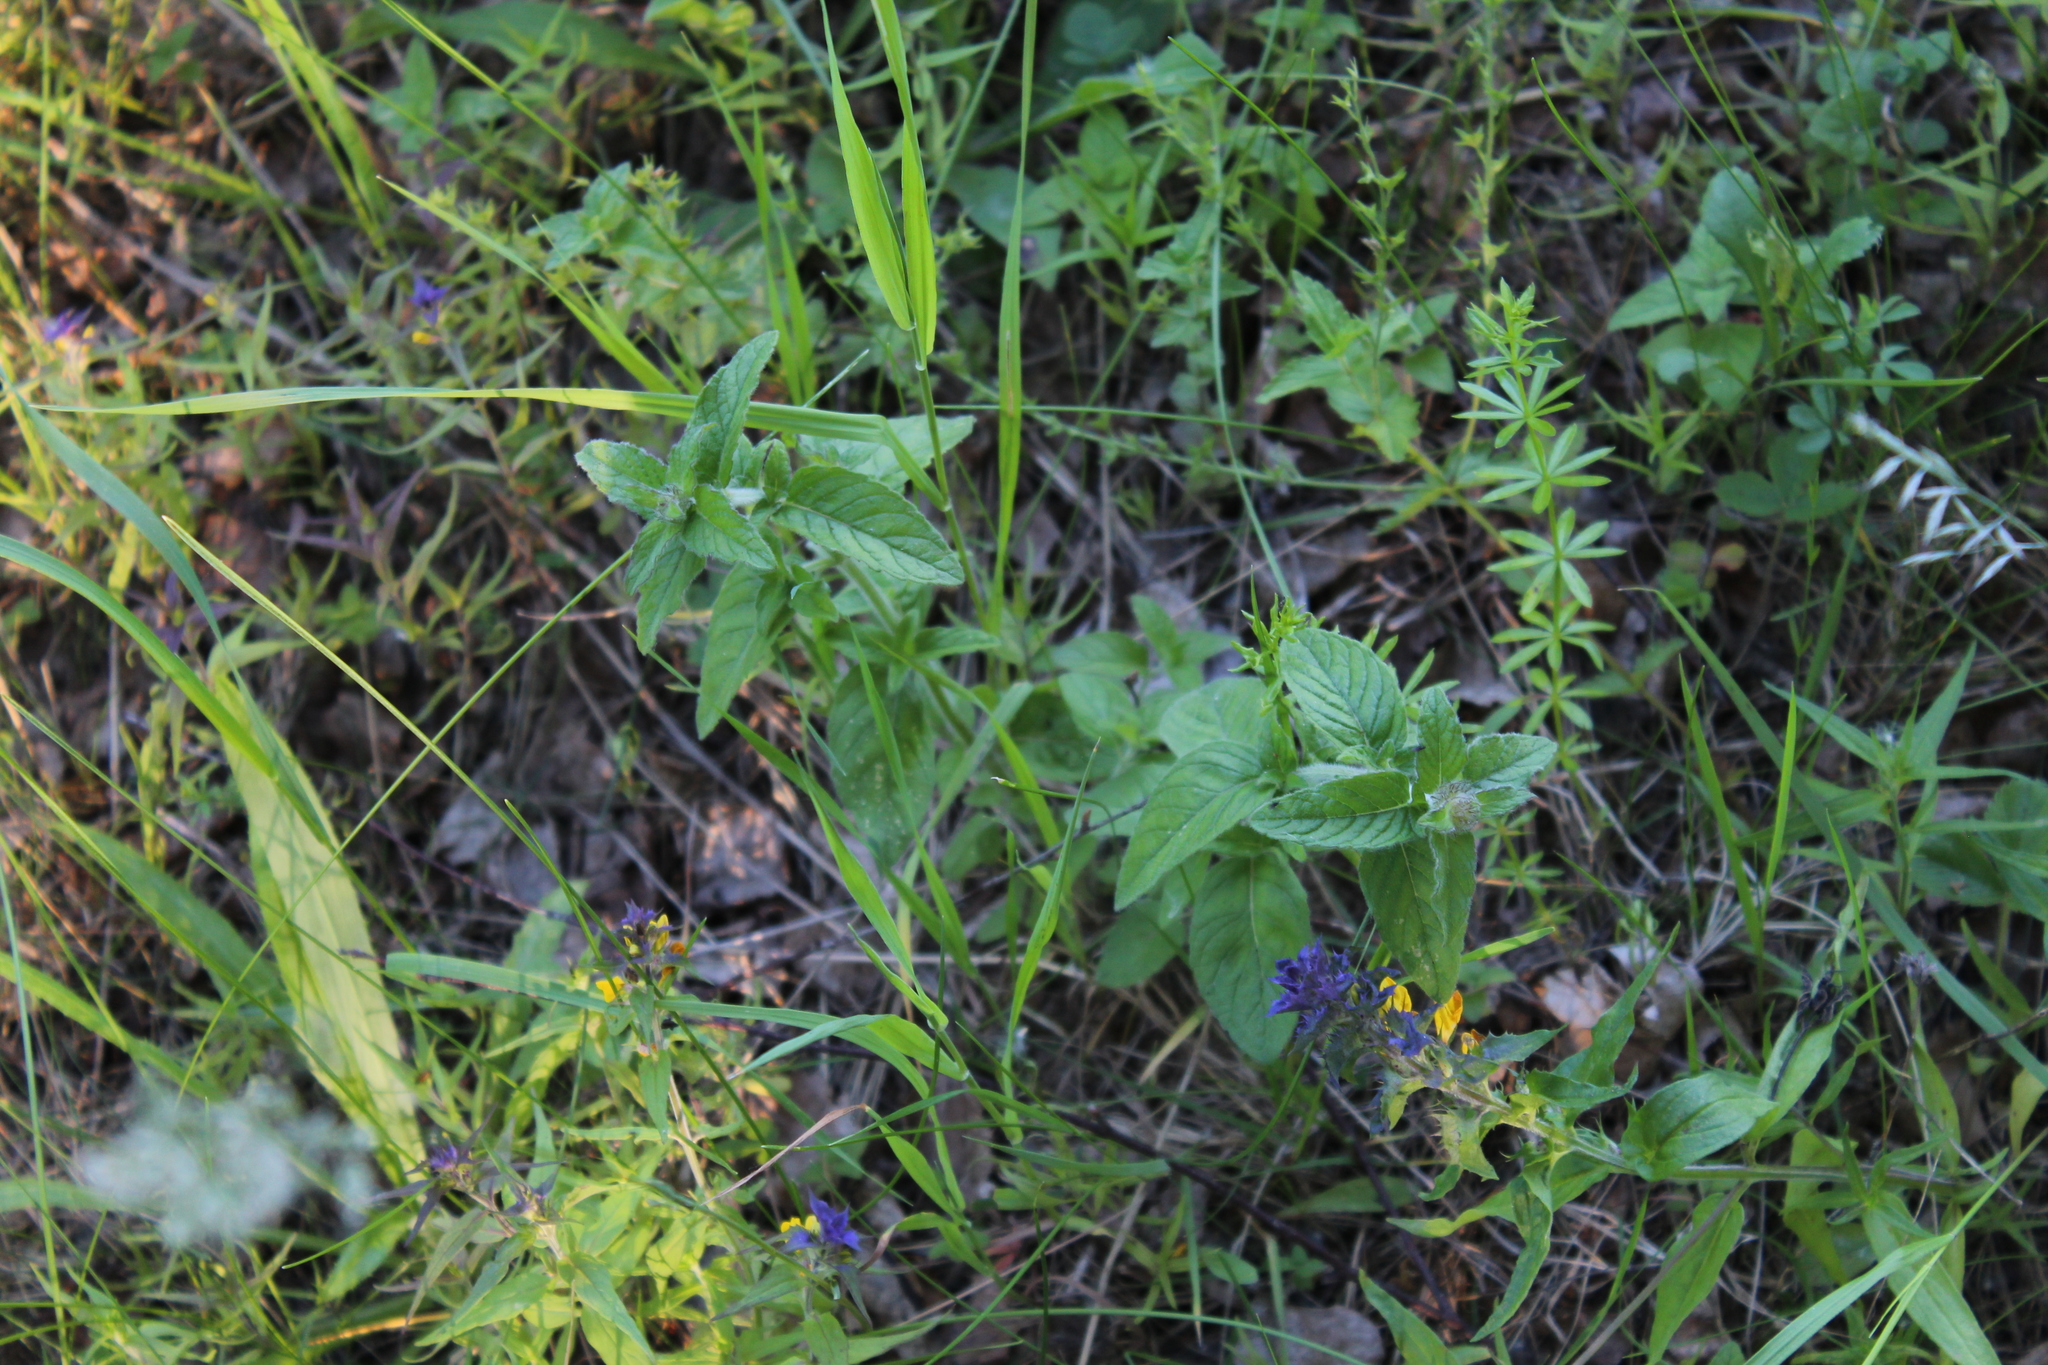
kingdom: Plantae
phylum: Tracheophyta
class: Magnoliopsida
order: Lamiales
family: Lamiaceae
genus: Clinopodium
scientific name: Clinopodium vulgare
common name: Wild basil
